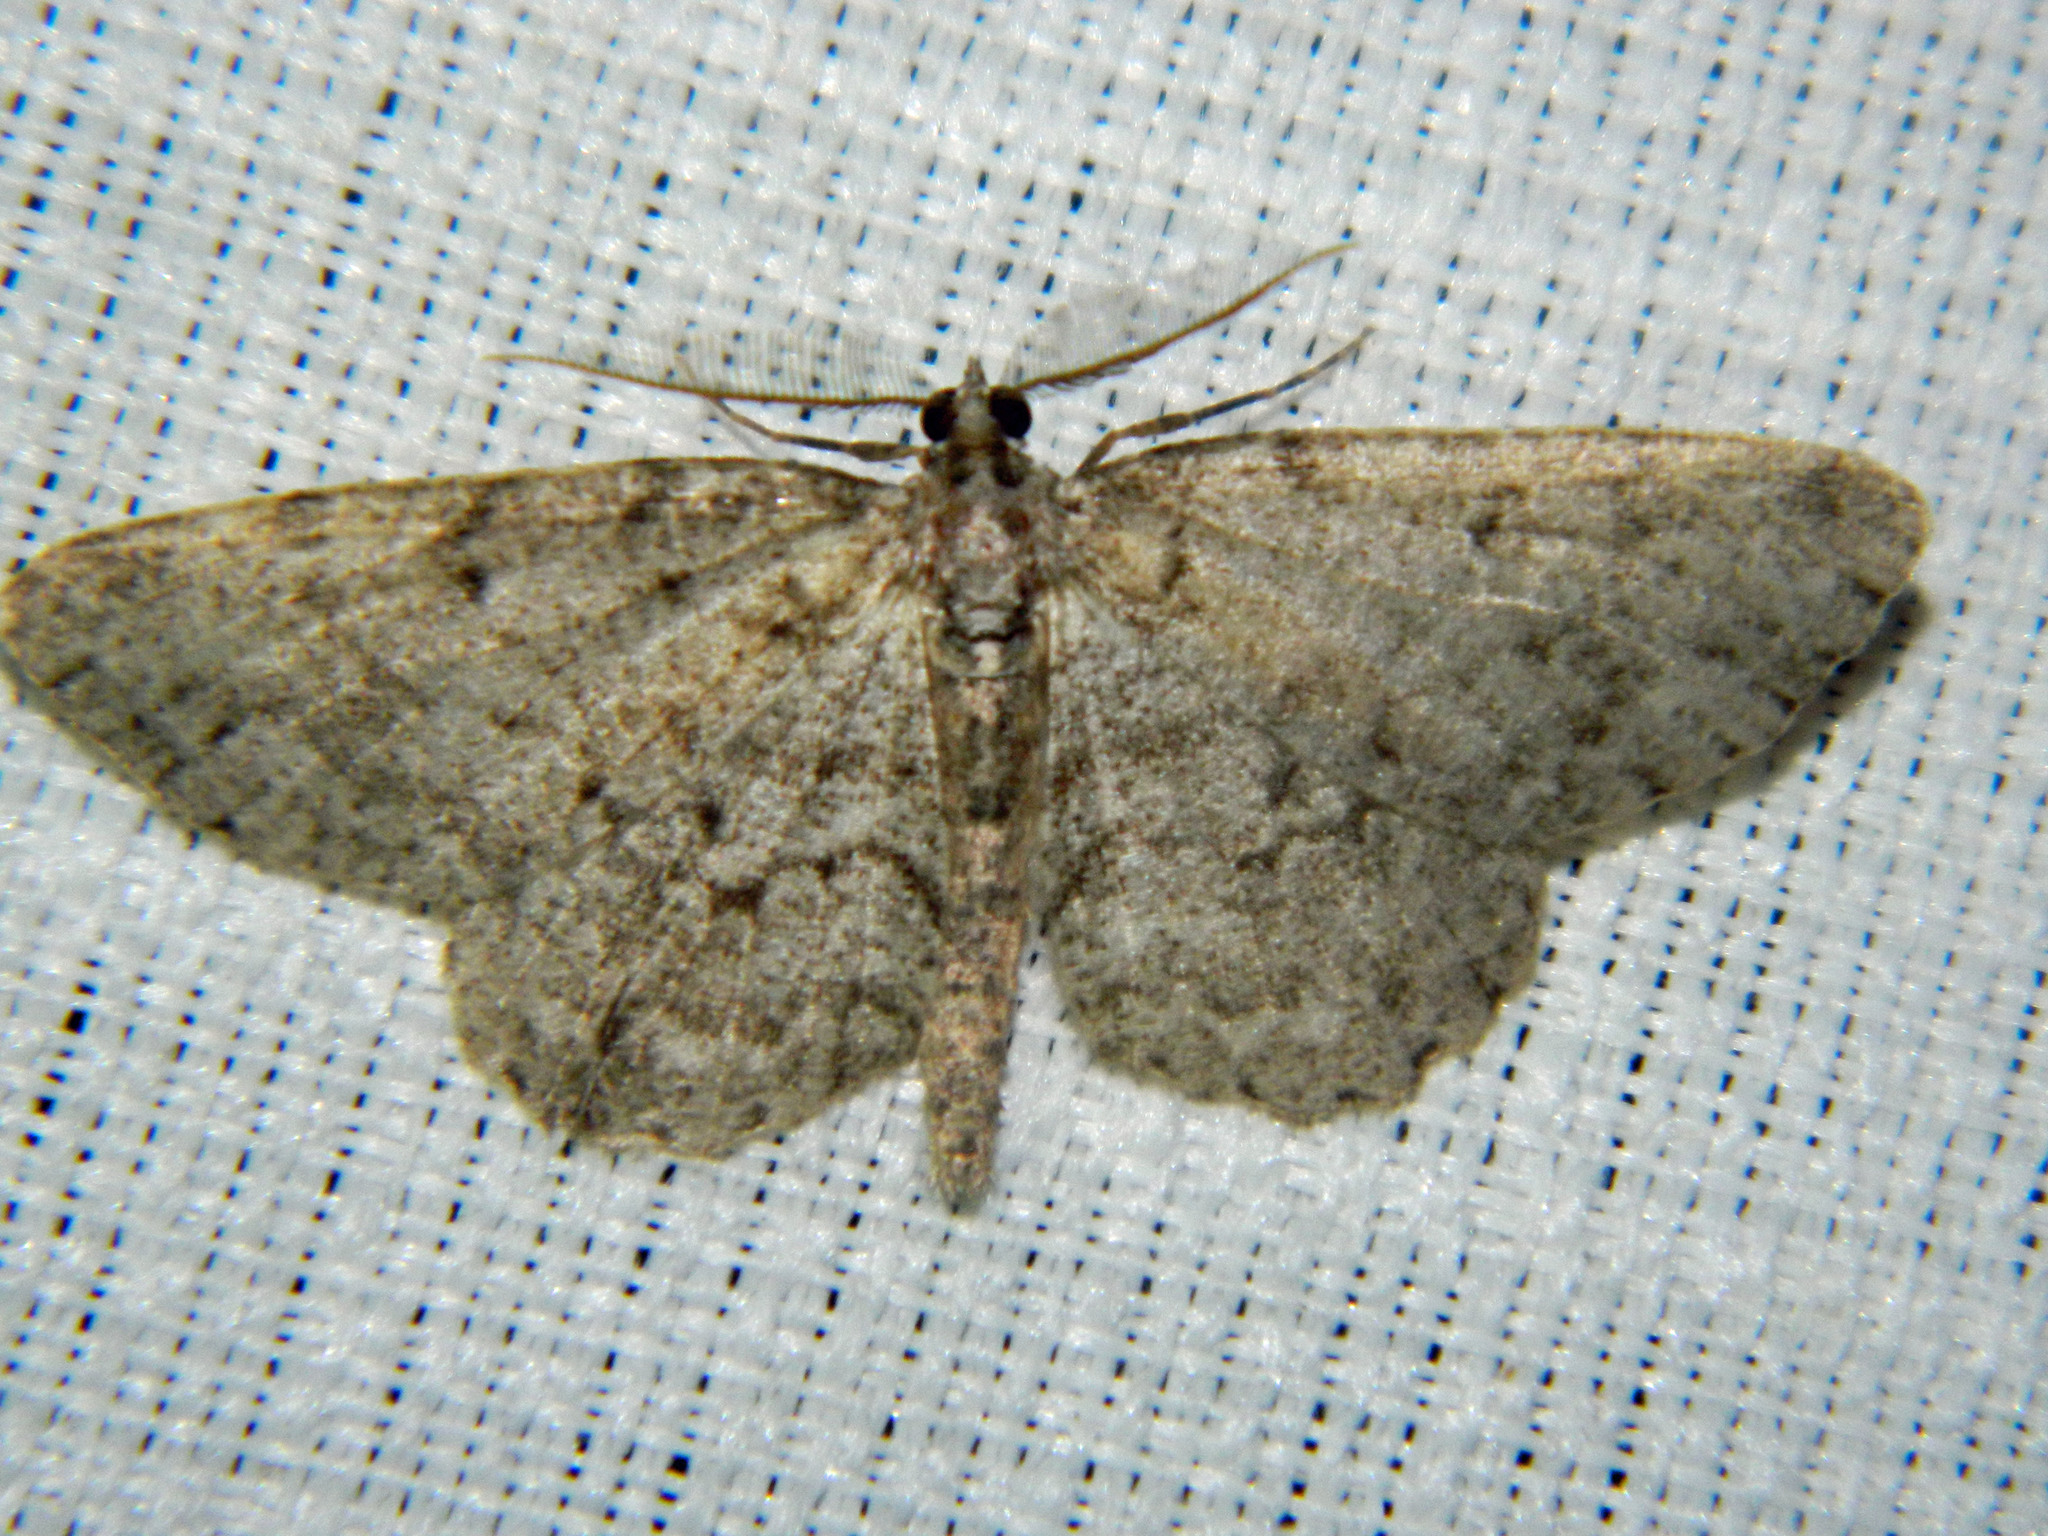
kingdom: Animalia
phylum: Arthropoda
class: Insecta
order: Lepidoptera
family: Geometridae
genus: Protoboarmia
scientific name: Protoboarmia porcelaria
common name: Porcelain gray
